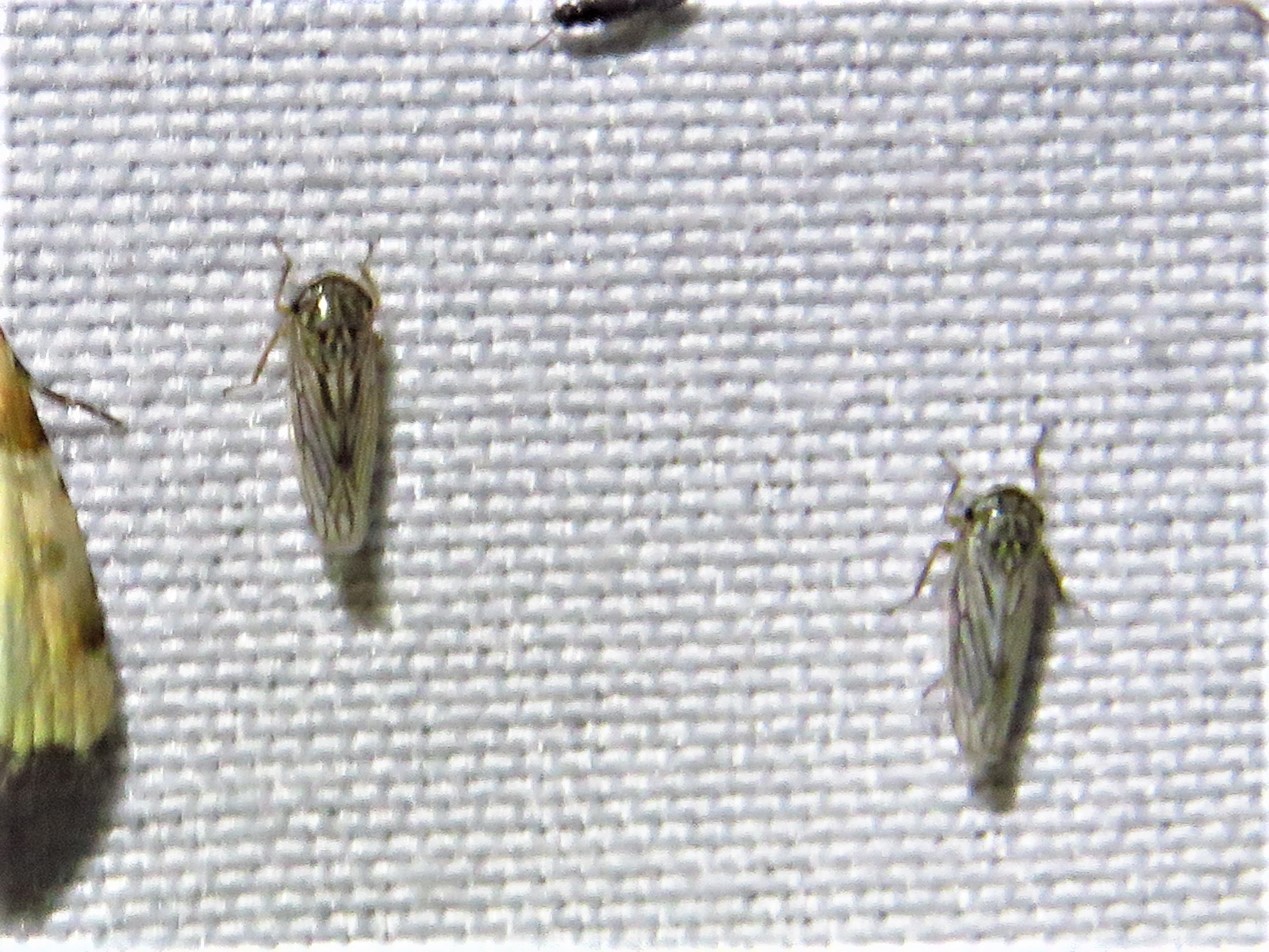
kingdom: Animalia
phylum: Arthropoda
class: Insecta
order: Hemiptera
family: Cicadellidae
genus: Exitianus
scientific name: Exitianus exitiosus
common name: Gray lawn leafhopper
